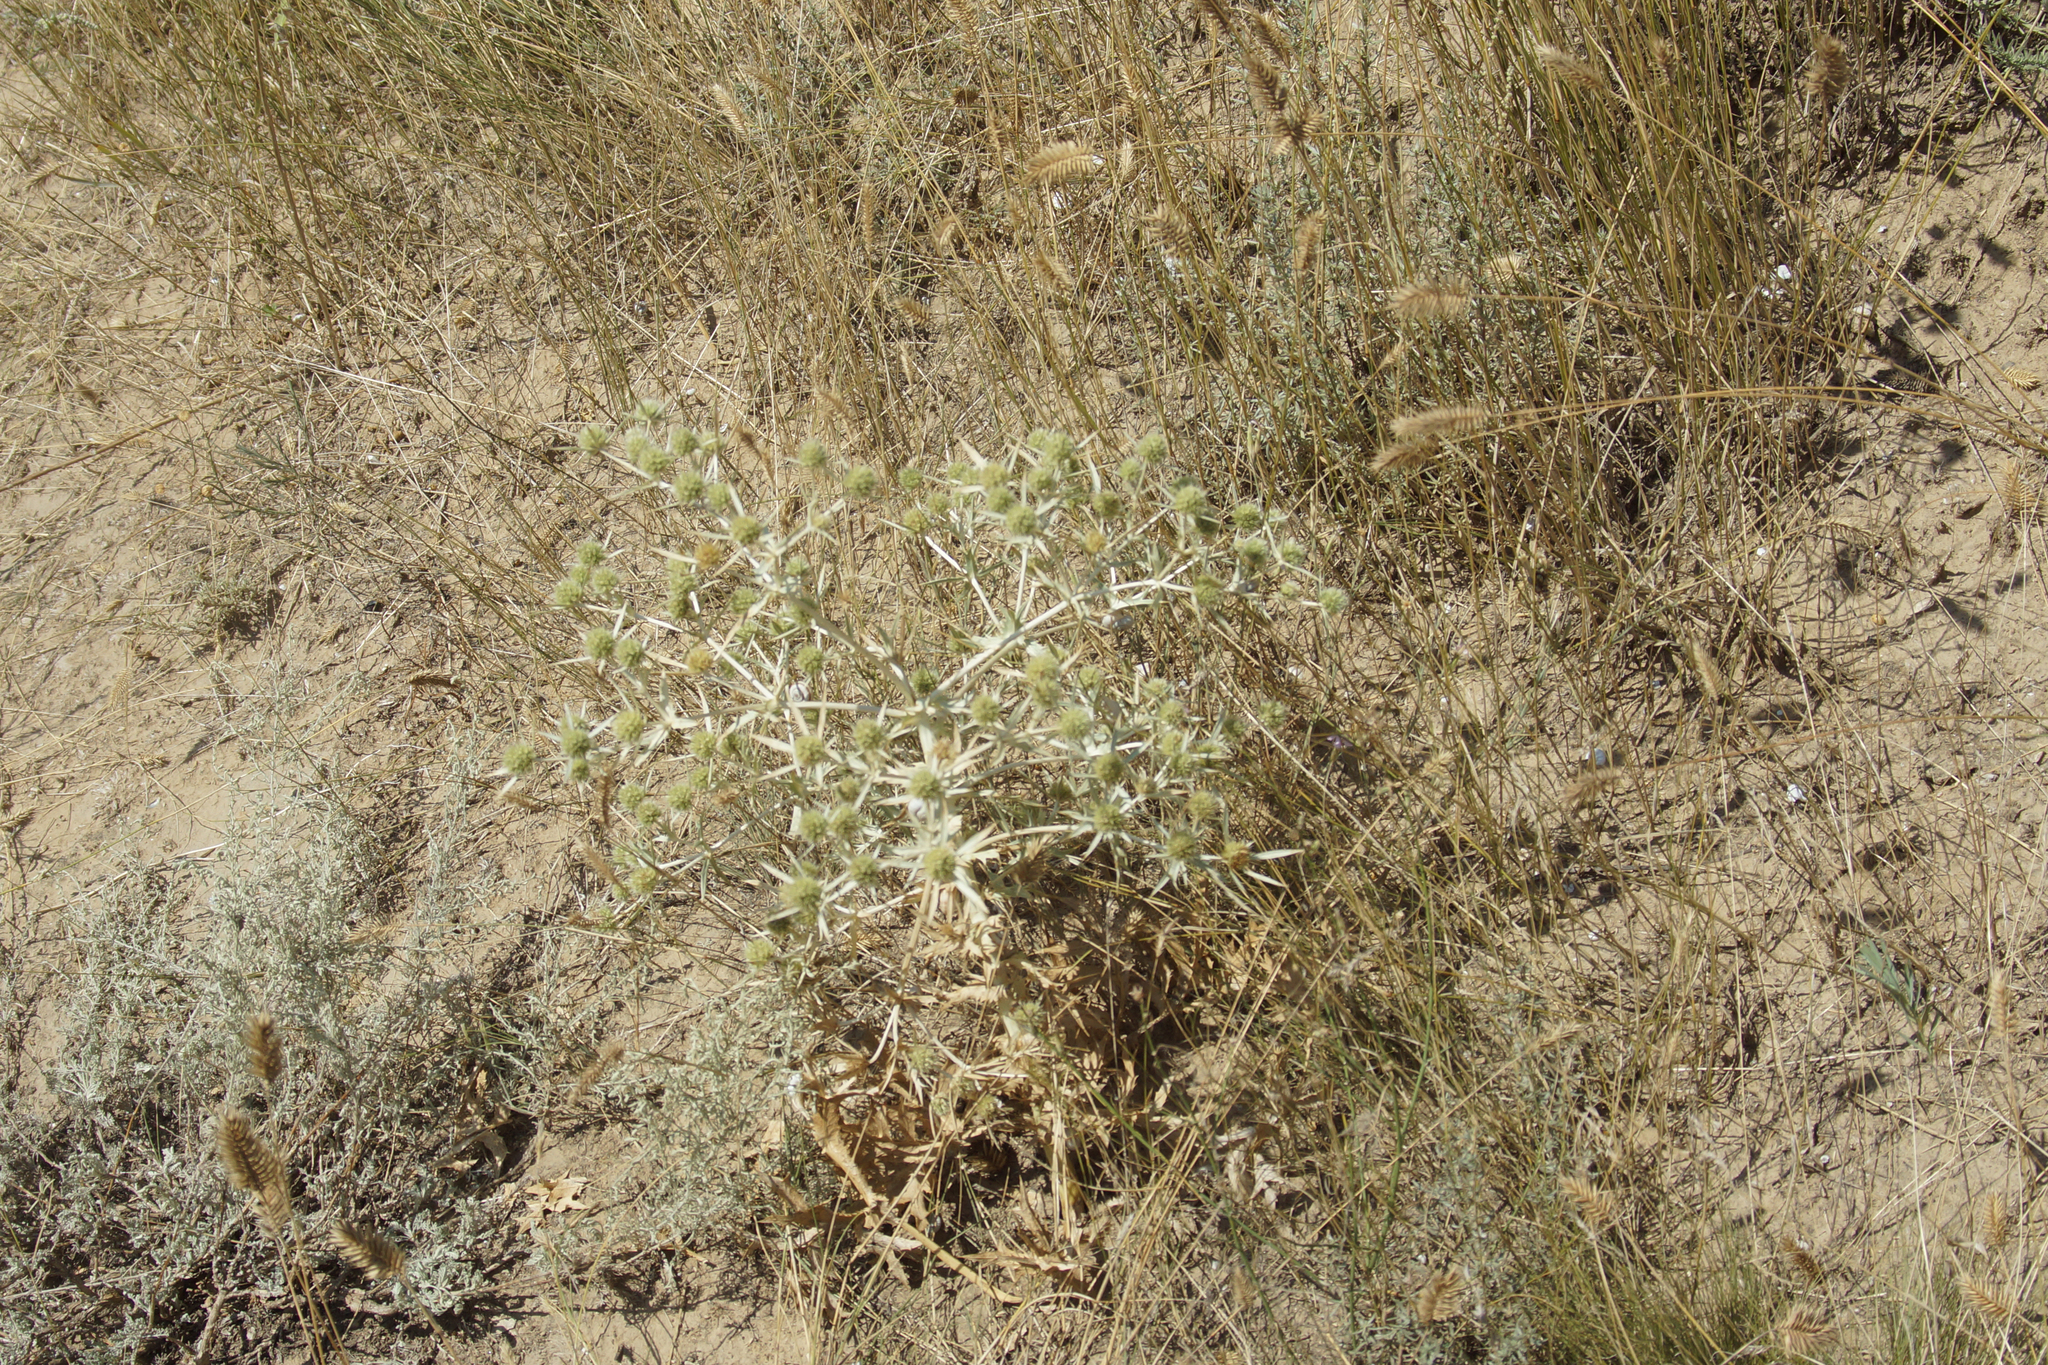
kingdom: Plantae
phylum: Tracheophyta
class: Magnoliopsida
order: Apiales
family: Apiaceae
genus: Eryngium
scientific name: Eryngium campestre
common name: Field eryngo
